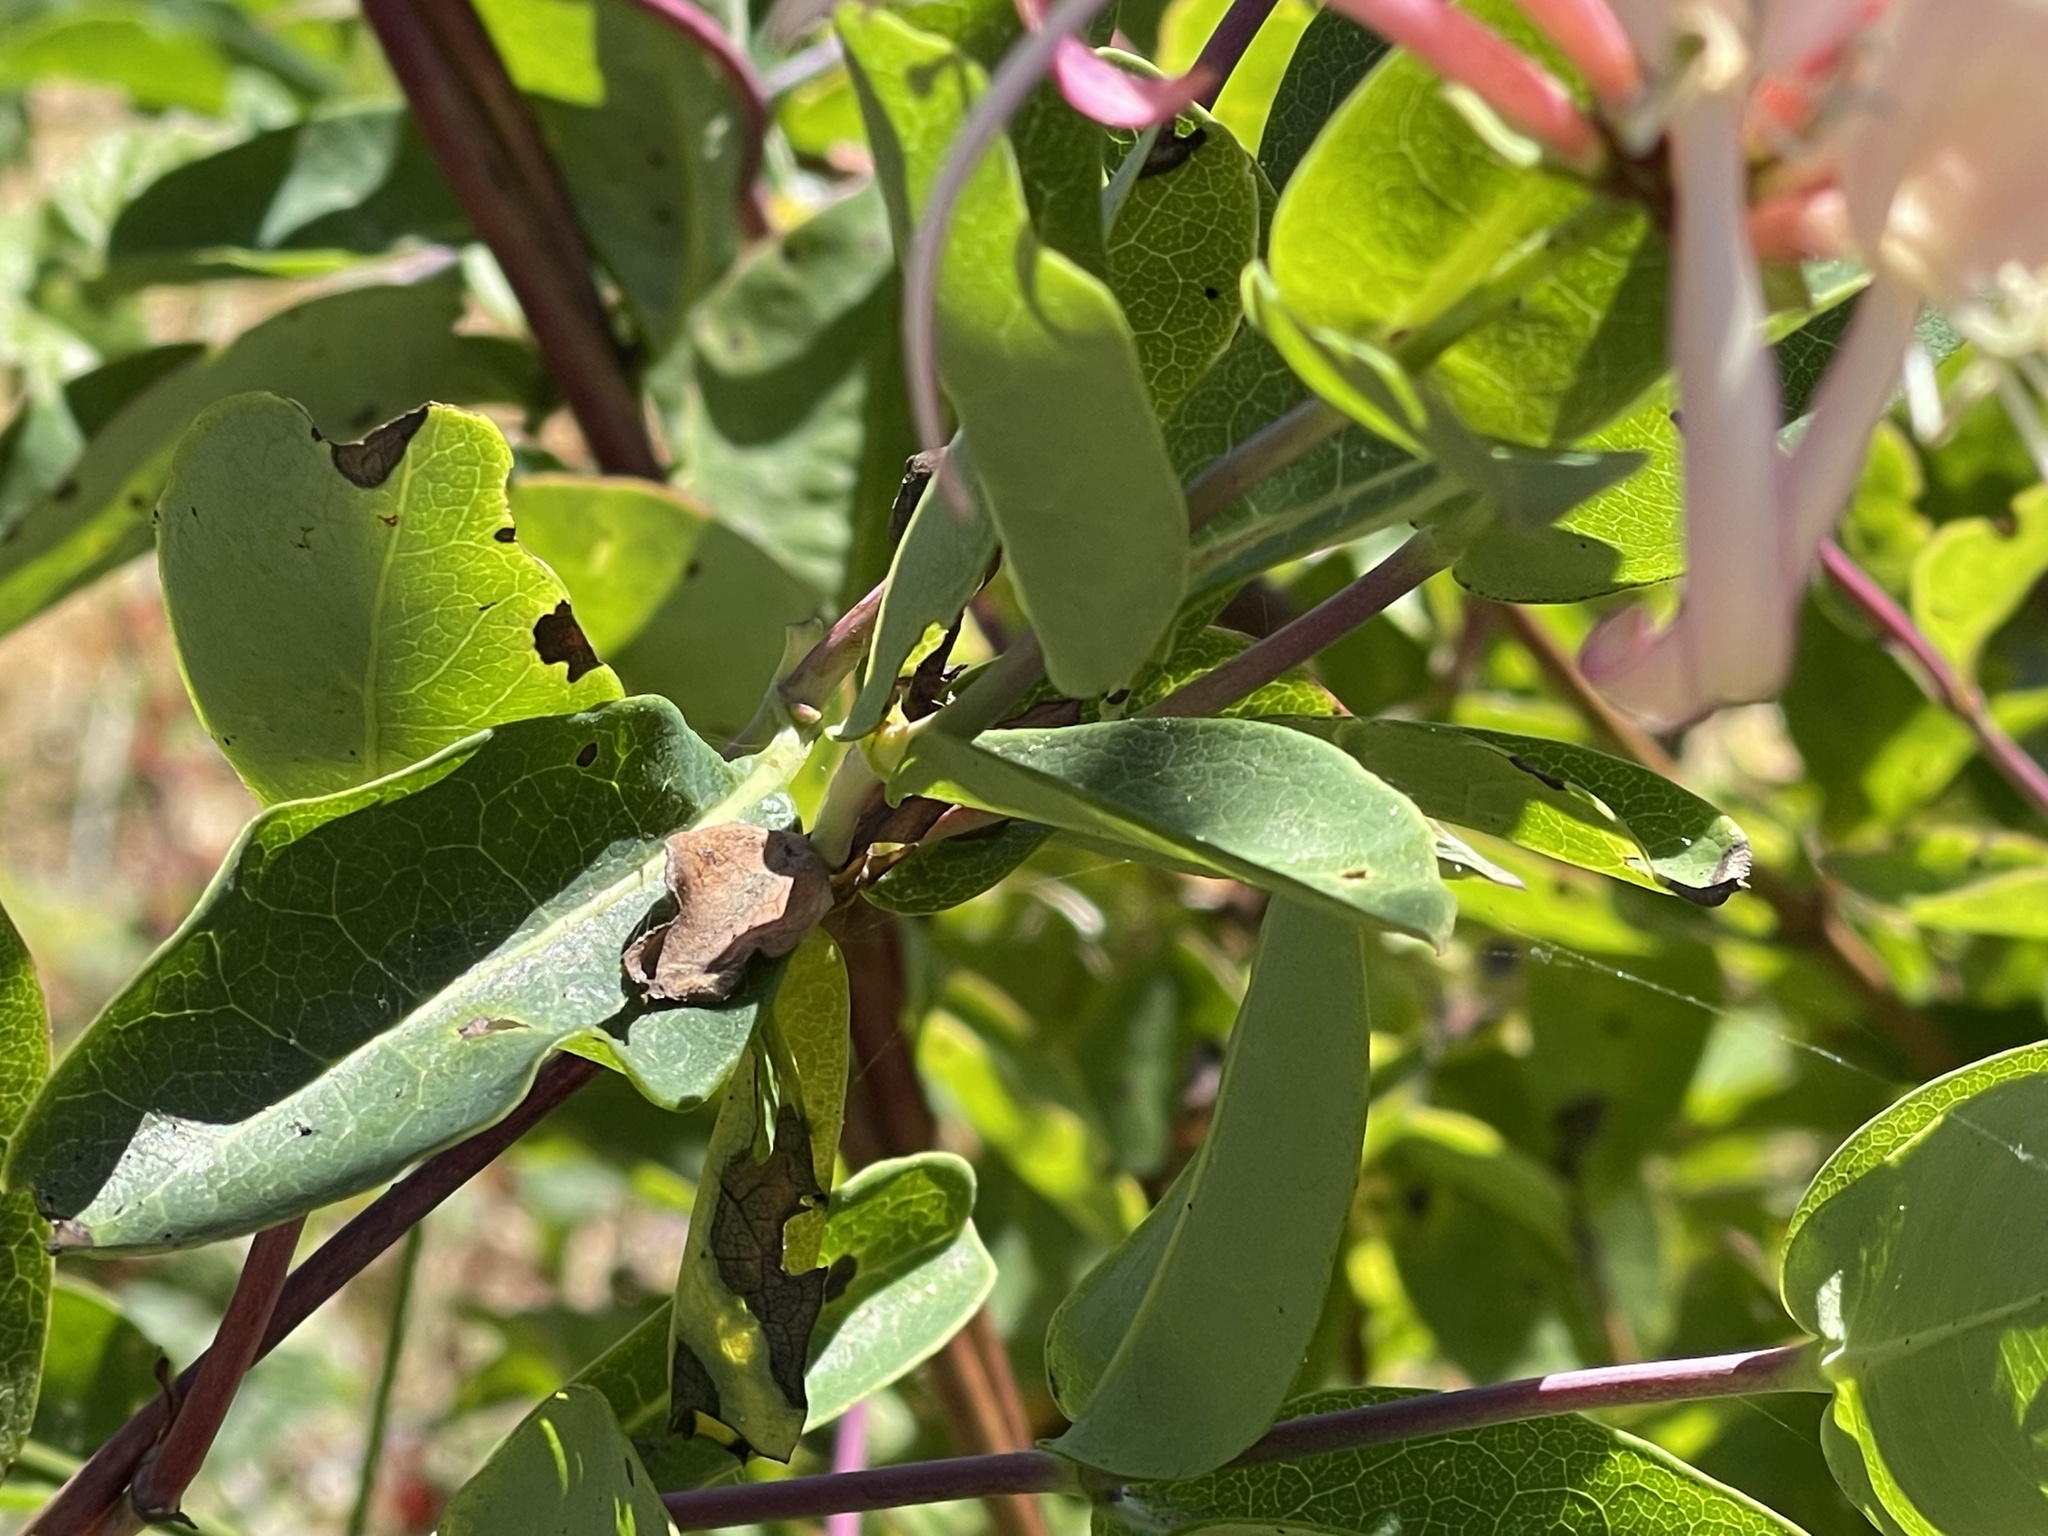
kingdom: Plantae
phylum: Tracheophyta
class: Magnoliopsida
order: Dipsacales
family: Caprifoliaceae
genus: Lonicera
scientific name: Lonicera periclymenum
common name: European honeysuckle
